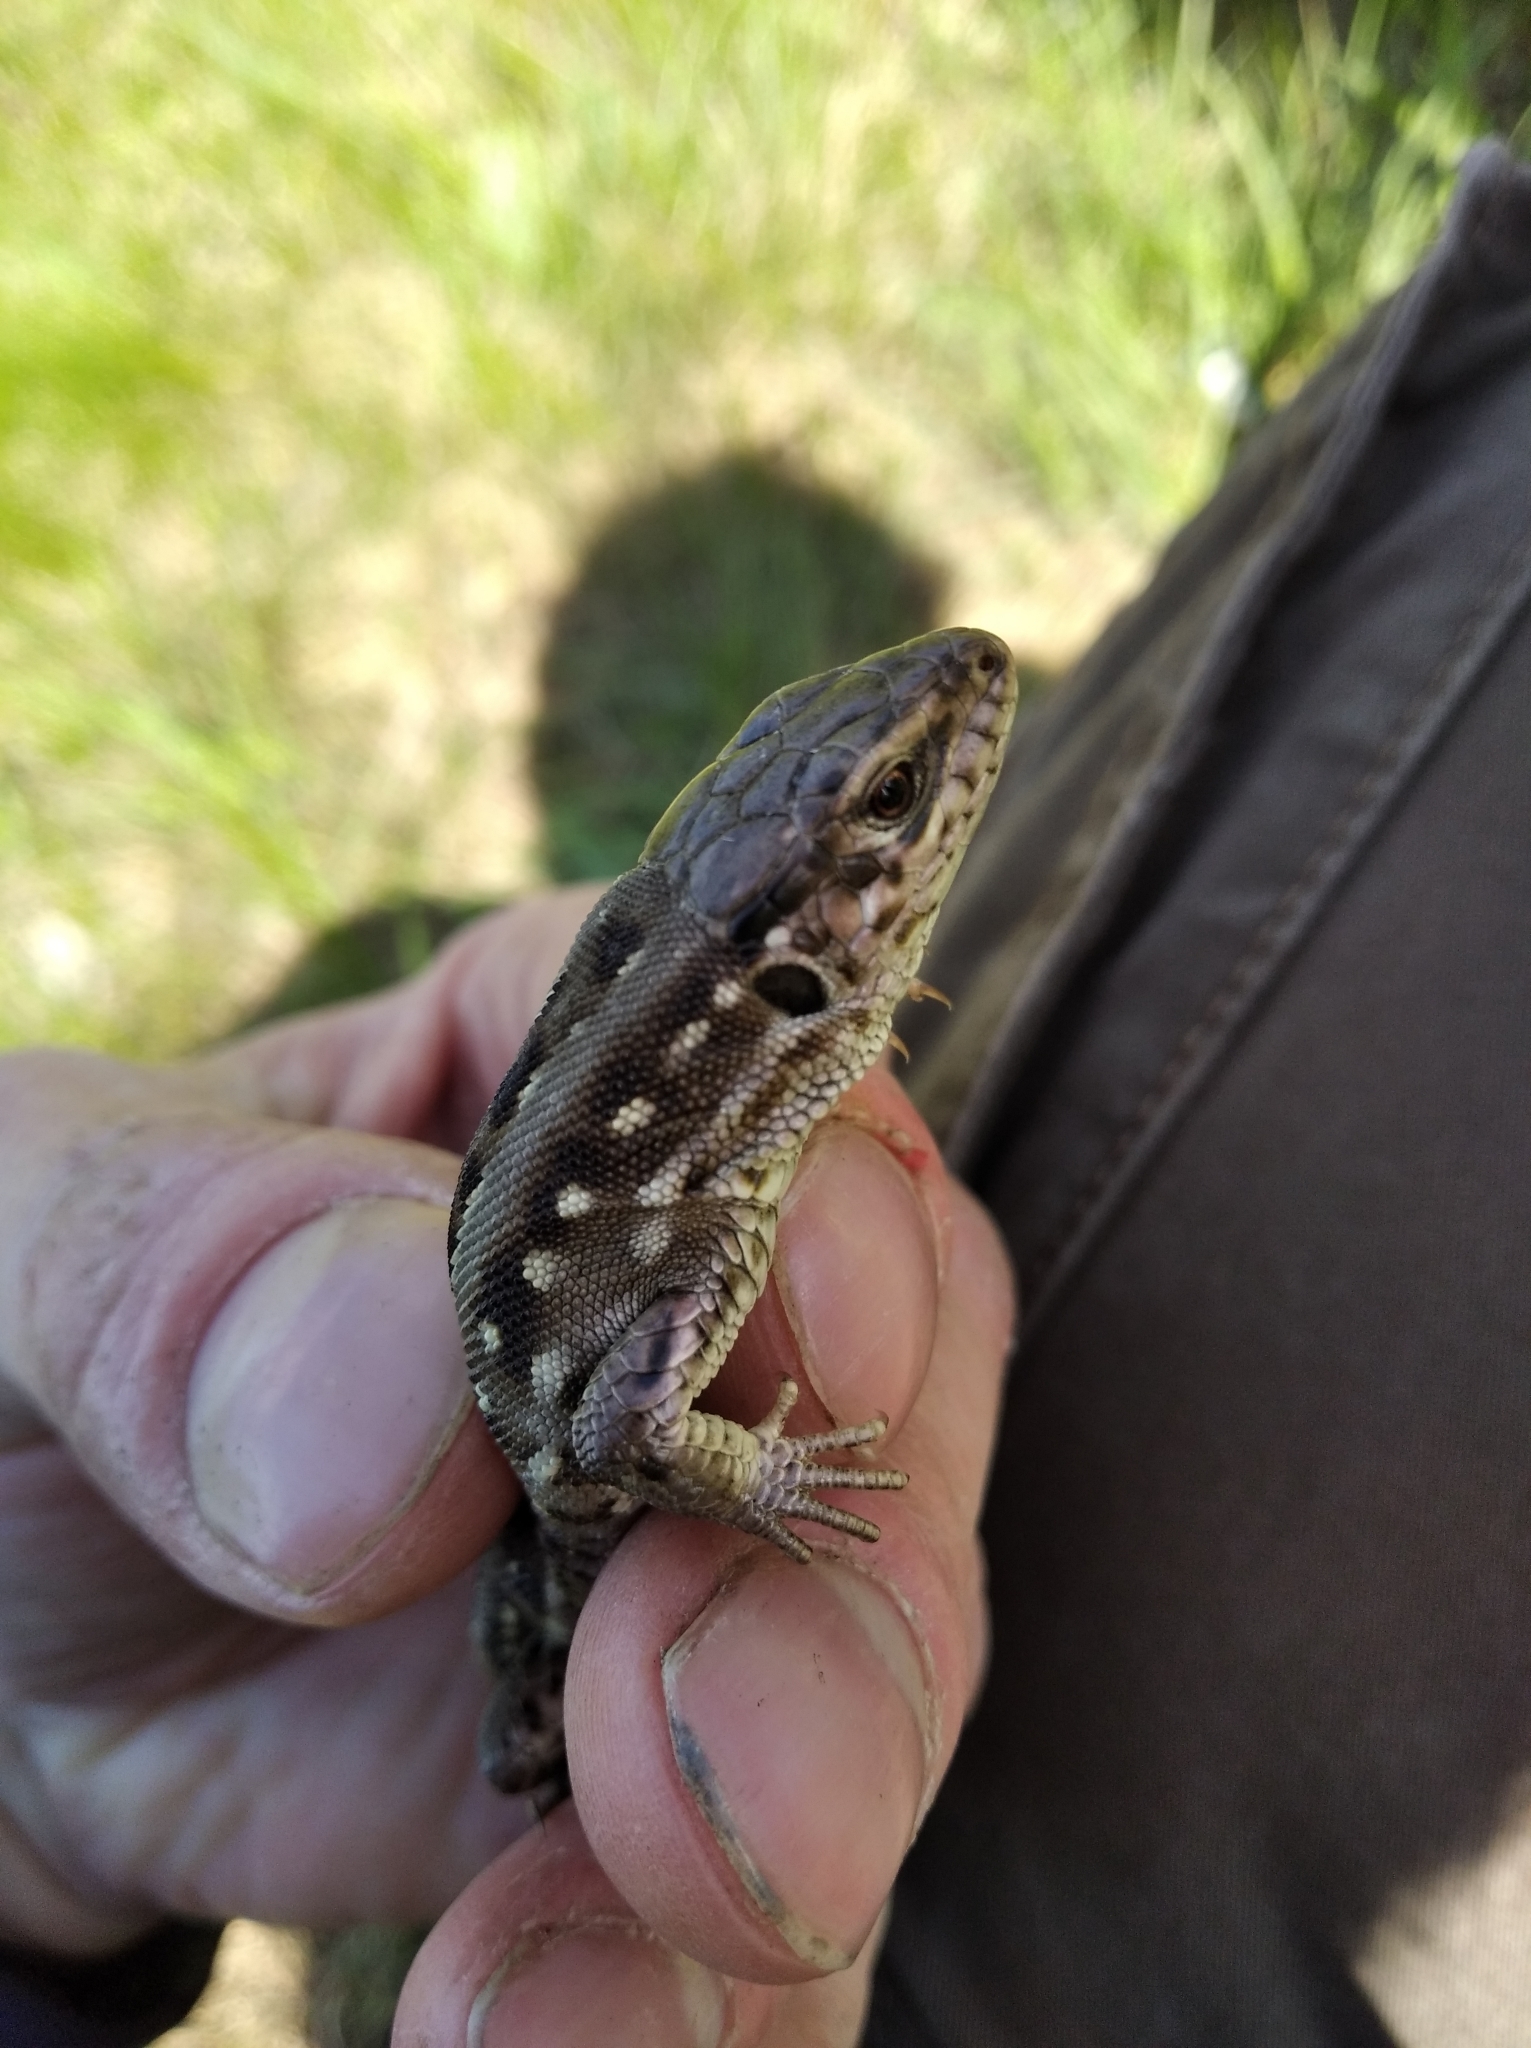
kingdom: Animalia
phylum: Chordata
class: Squamata
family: Lacertidae
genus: Lacerta
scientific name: Lacerta agilis
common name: Sand lizard
